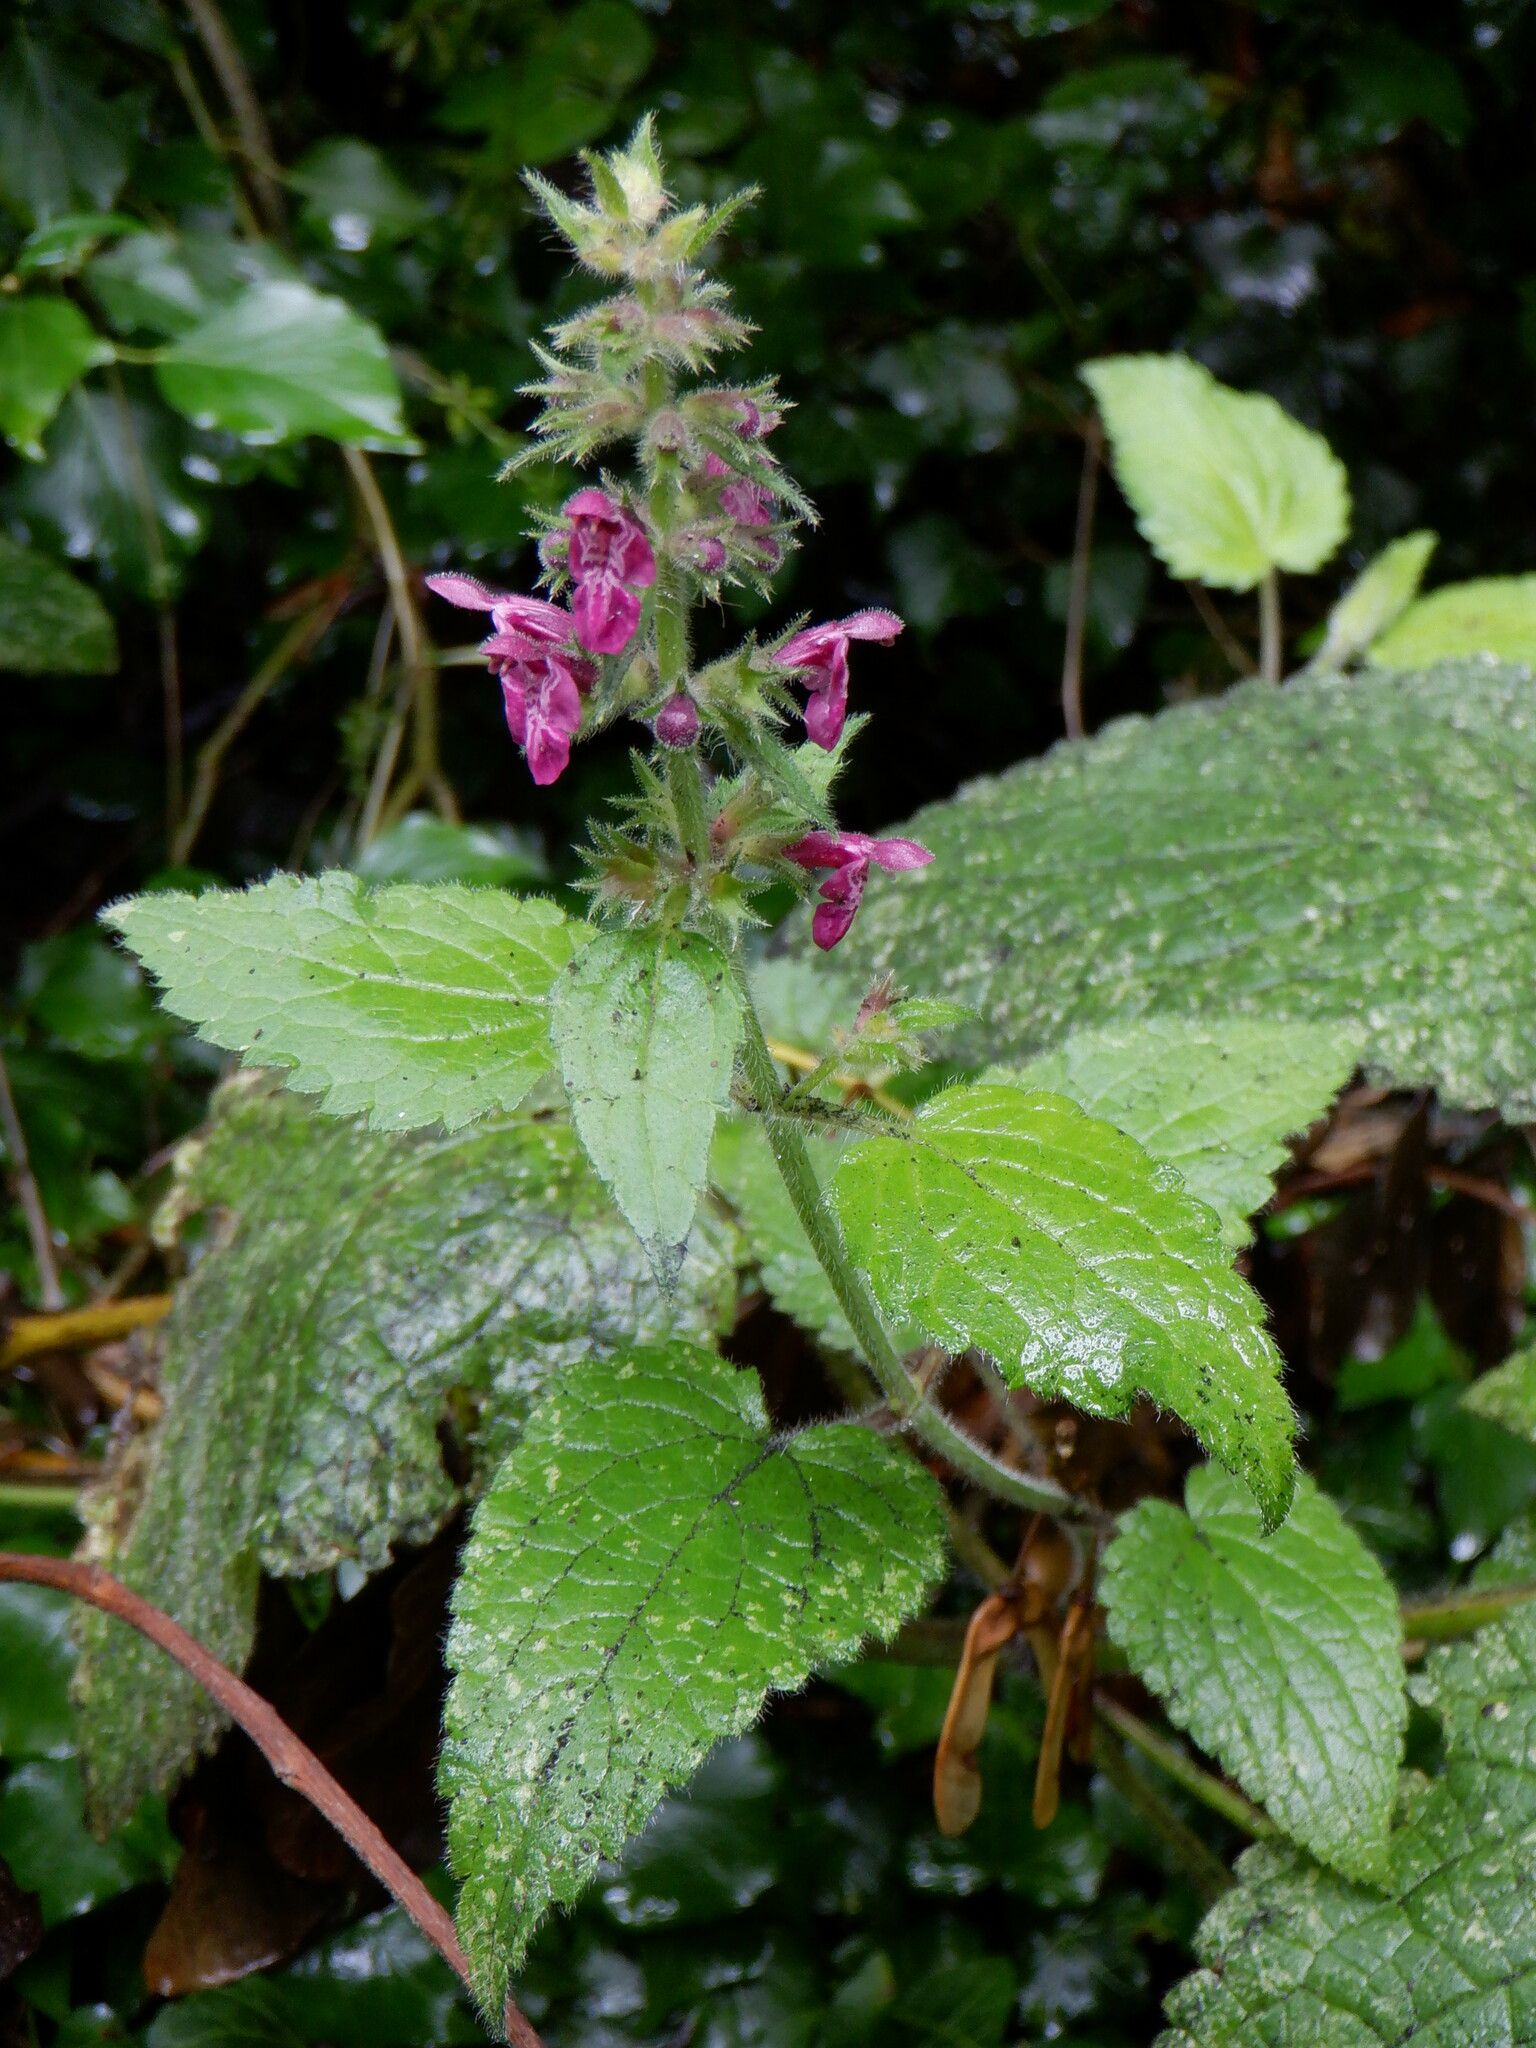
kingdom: Plantae
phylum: Tracheophyta
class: Magnoliopsida
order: Lamiales
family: Lamiaceae
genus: Stachys
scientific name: Stachys sylvatica
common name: Hedge woundwort
